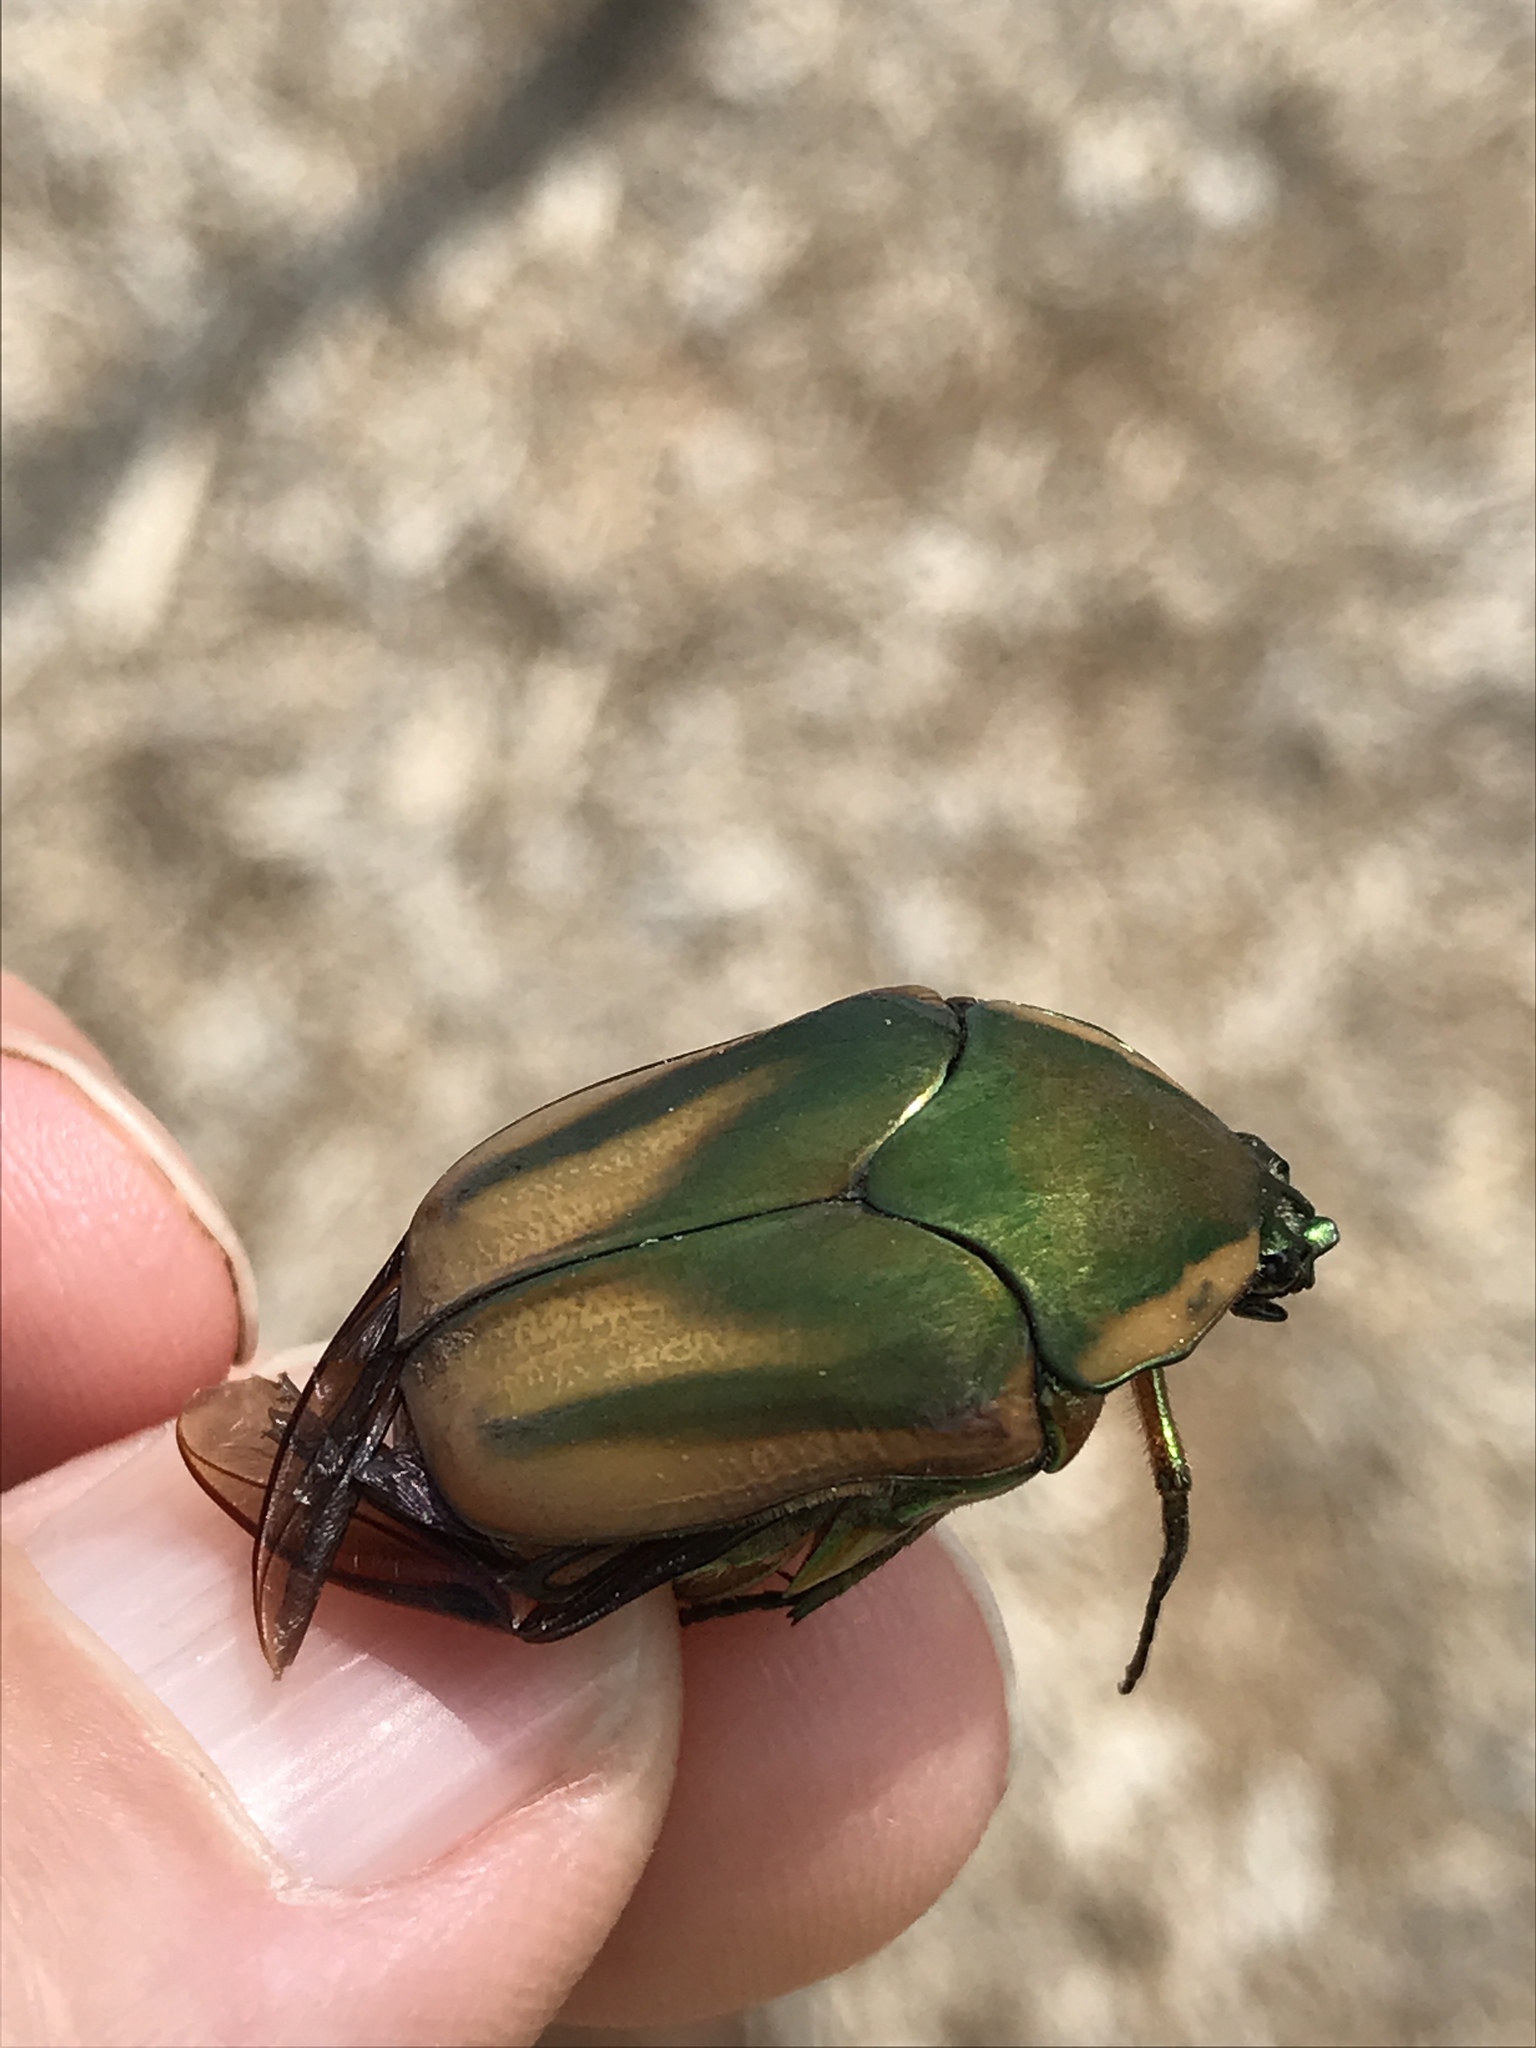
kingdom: Animalia
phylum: Arthropoda
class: Insecta
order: Coleoptera
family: Scarabaeidae
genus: Cotinis
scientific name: Cotinis nitida
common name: Common green june beetle
